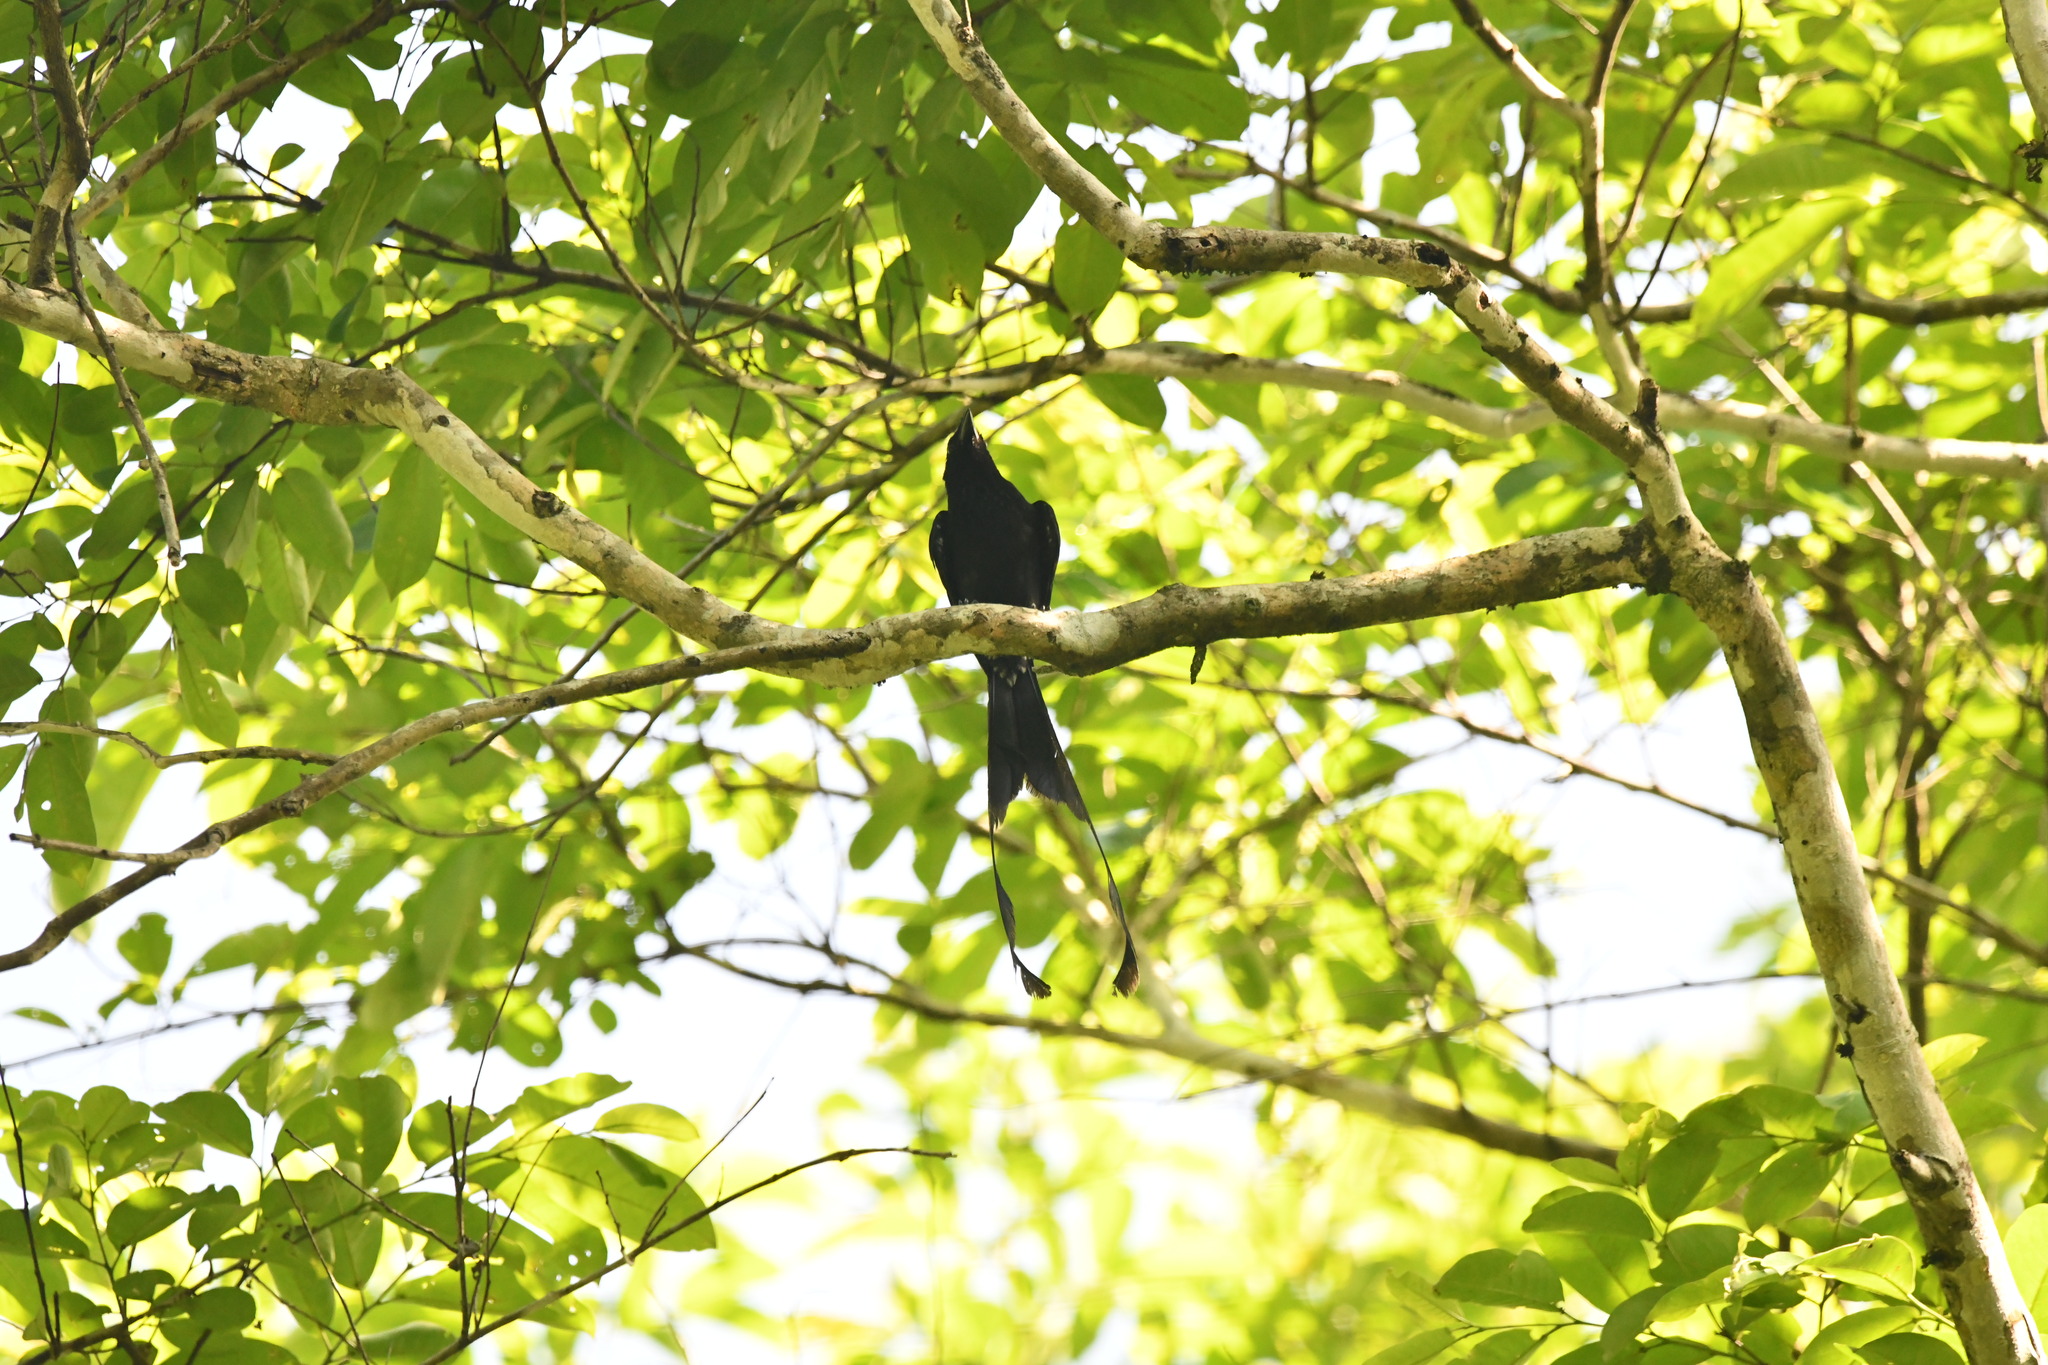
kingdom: Animalia
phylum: Chordata
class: Aves
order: Passeriformes
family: Dicruridae
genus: Dicrurus
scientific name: Dicrurus paradiseus
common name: Greater racket-tailed drongo
